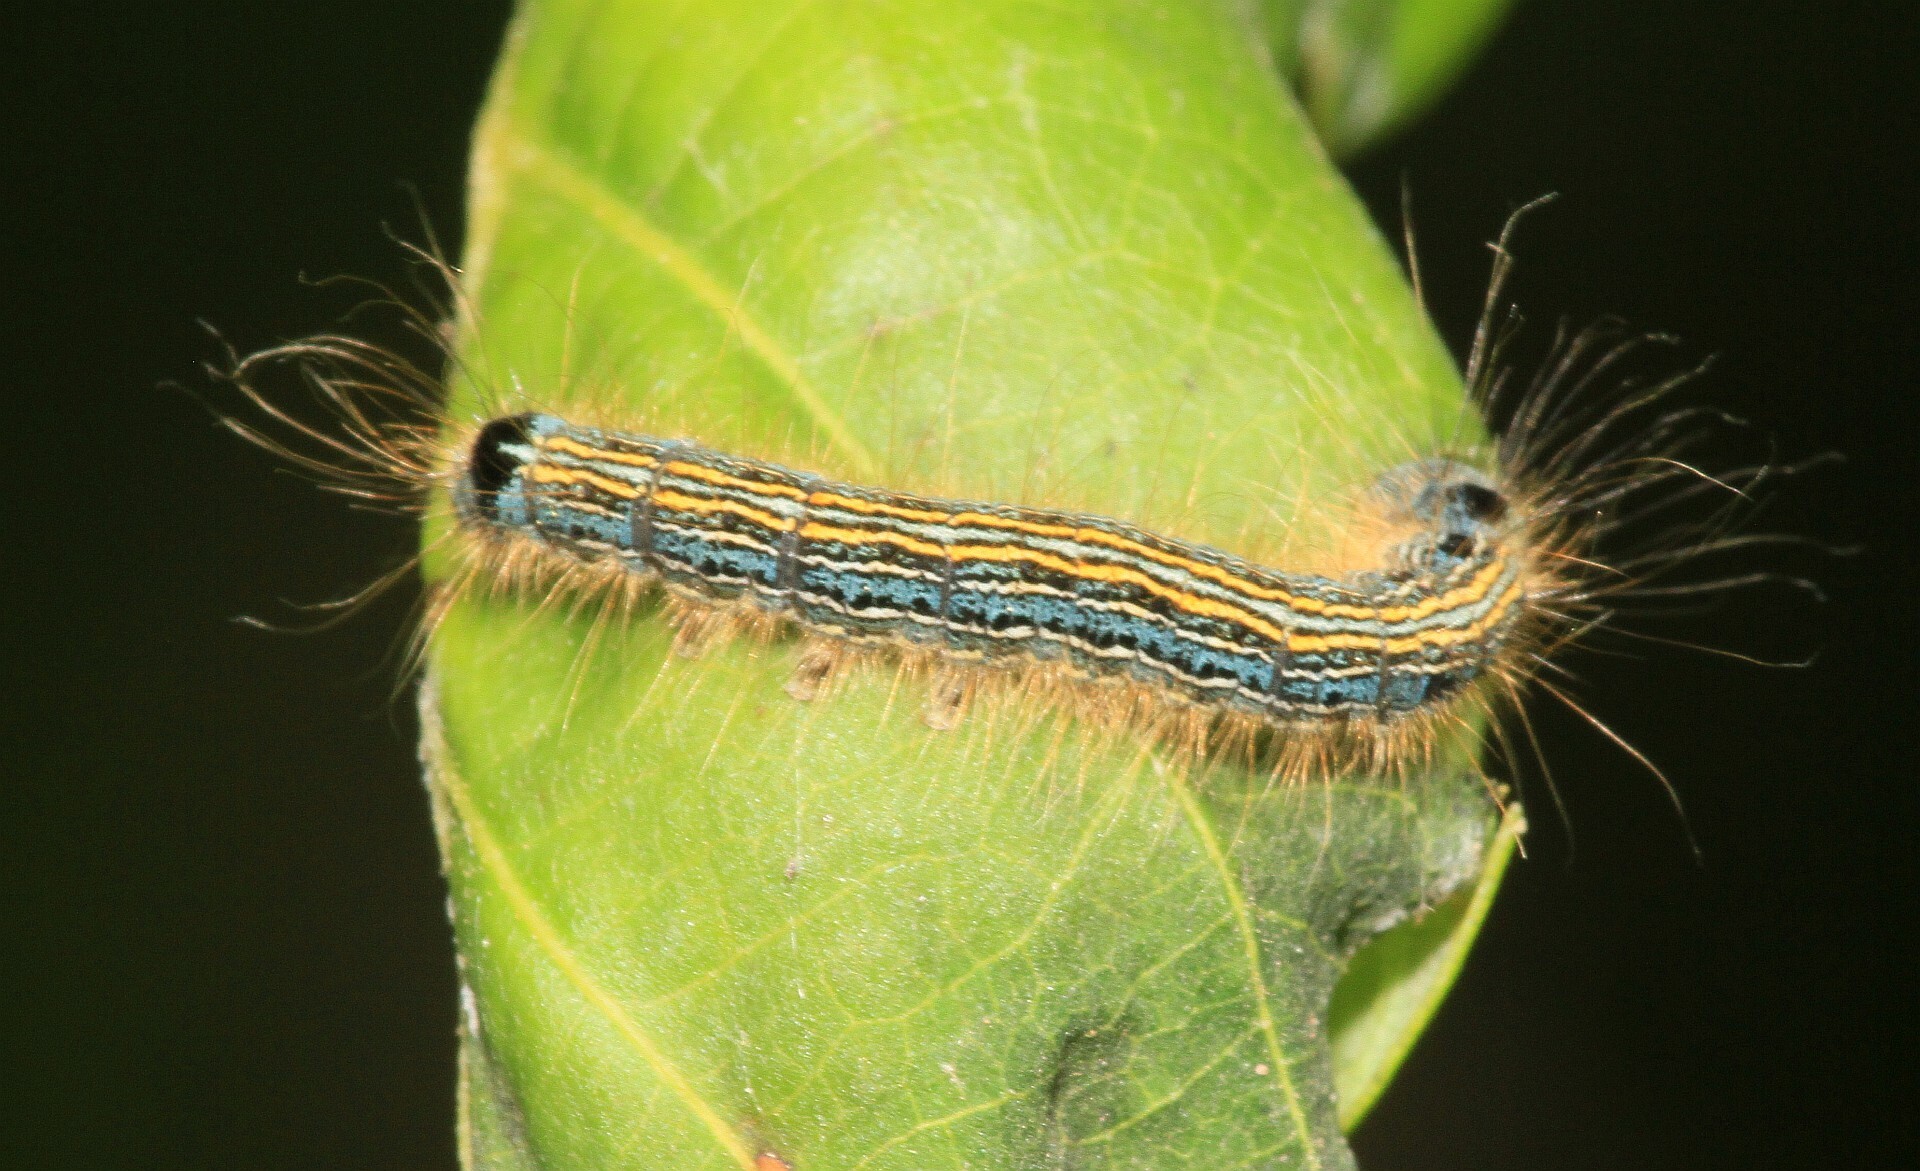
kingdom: Animalia
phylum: Arthropoda
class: Insecta
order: Lepidoptera
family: Lasiocampidae
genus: Malacosoma
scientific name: Malacosoma neustria
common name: The lackey
